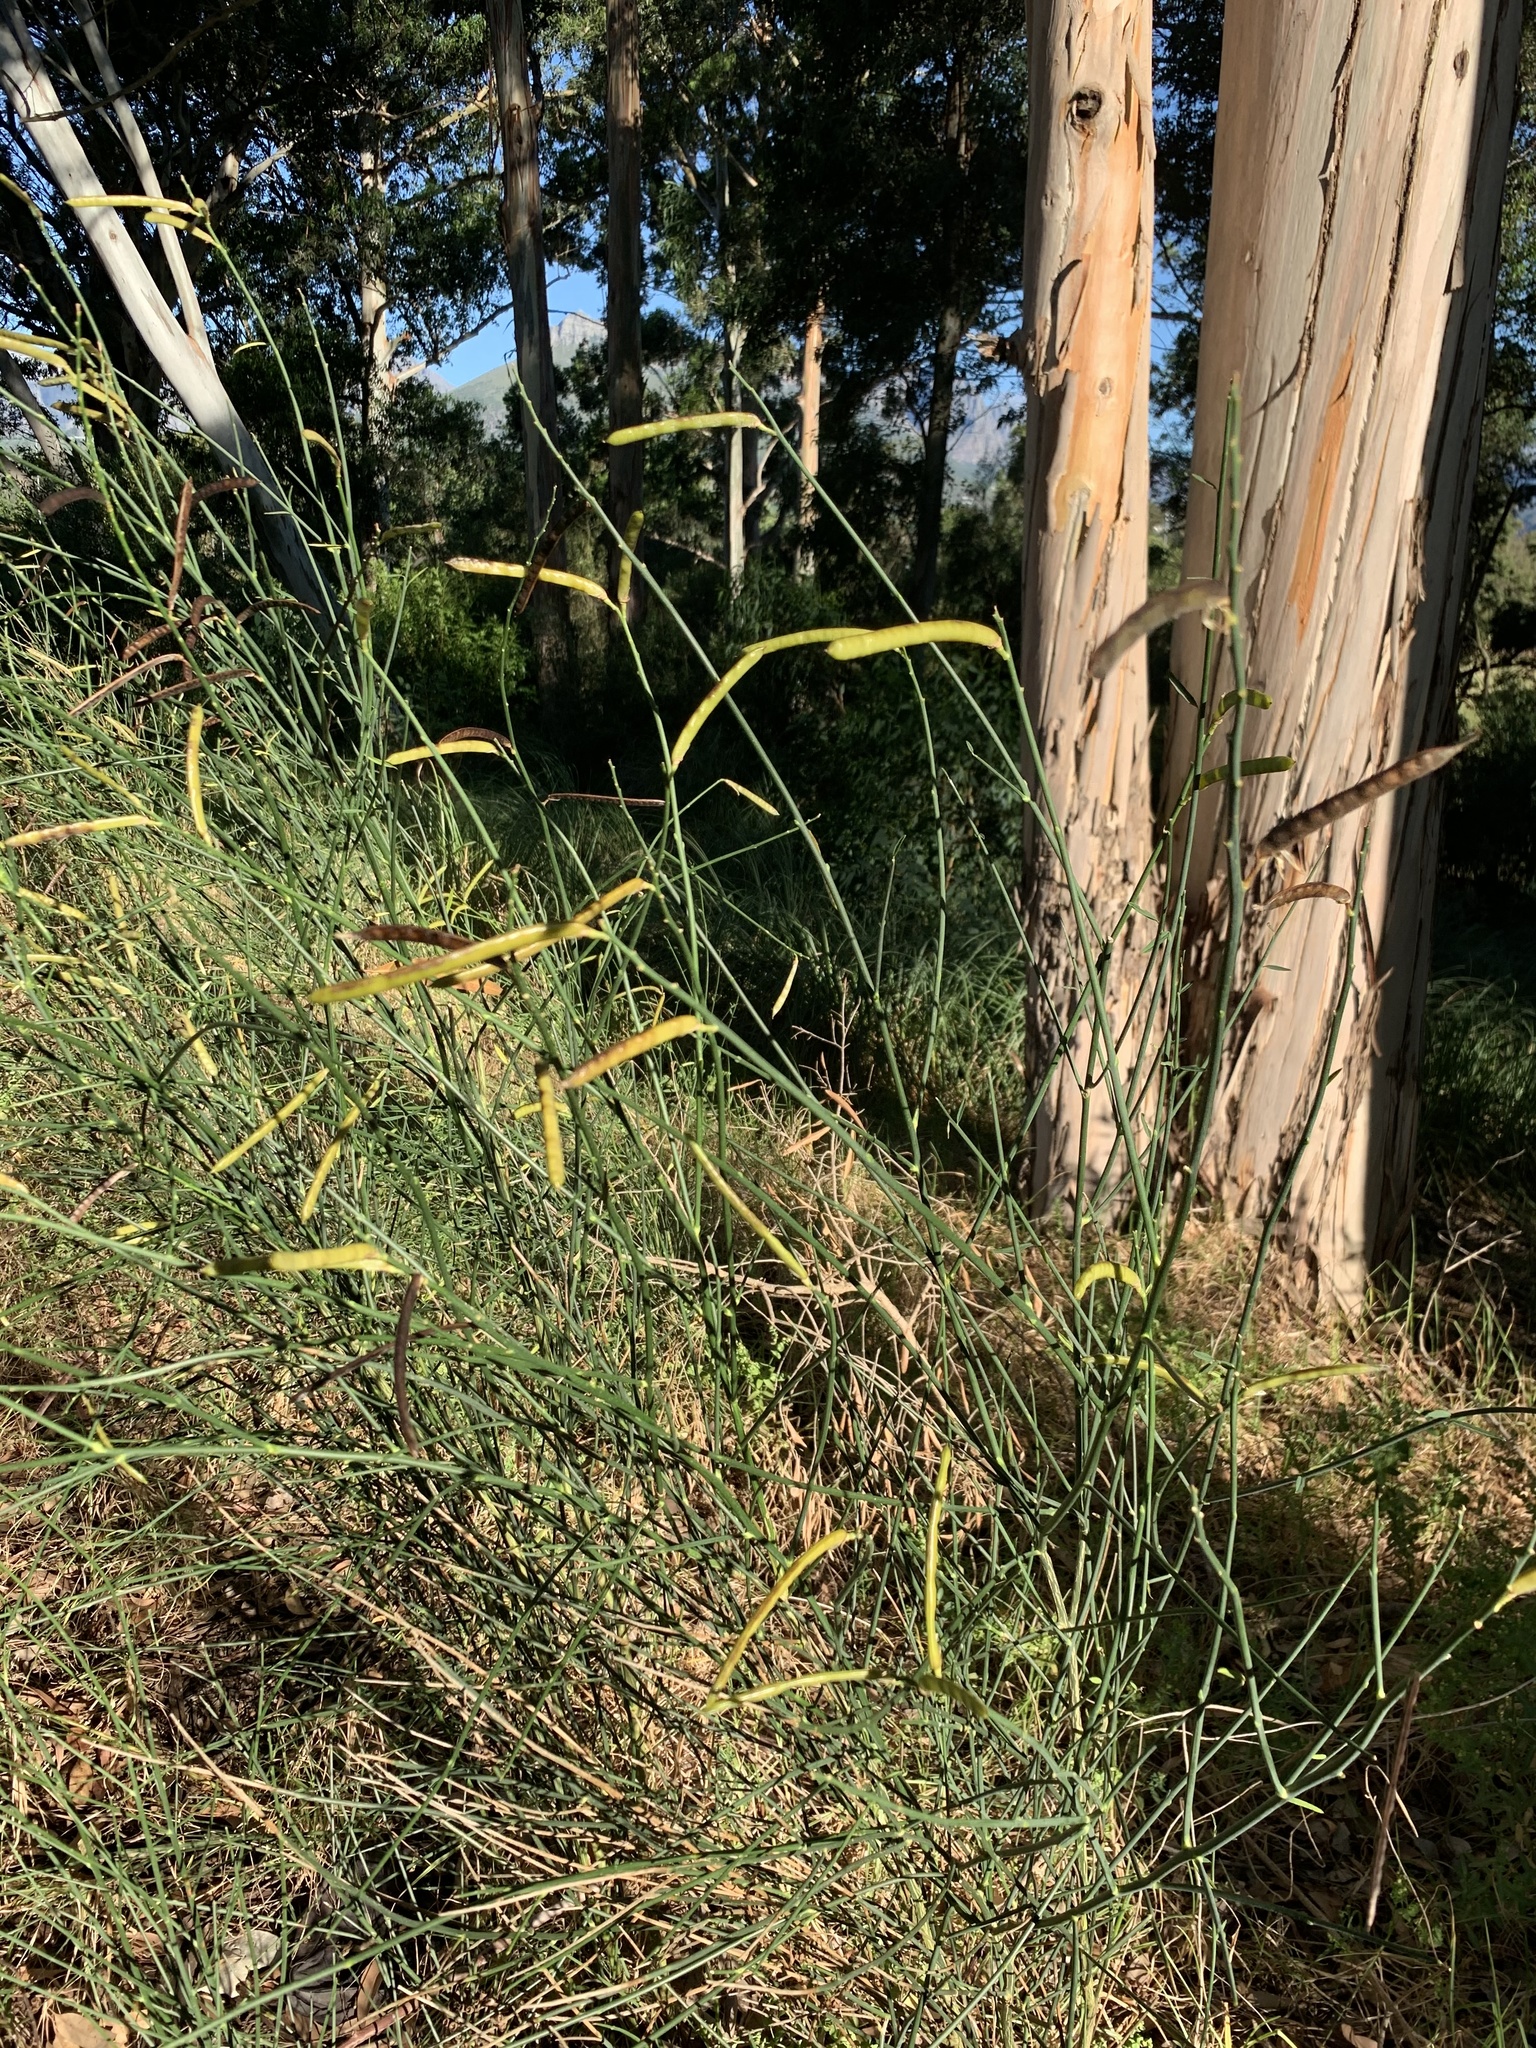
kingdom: Plantae
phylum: Tracheophyta
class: Magnoliopsida
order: Fabales
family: Fabaceae
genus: Spartium
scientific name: Spartium junceum
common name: Spanish broom
